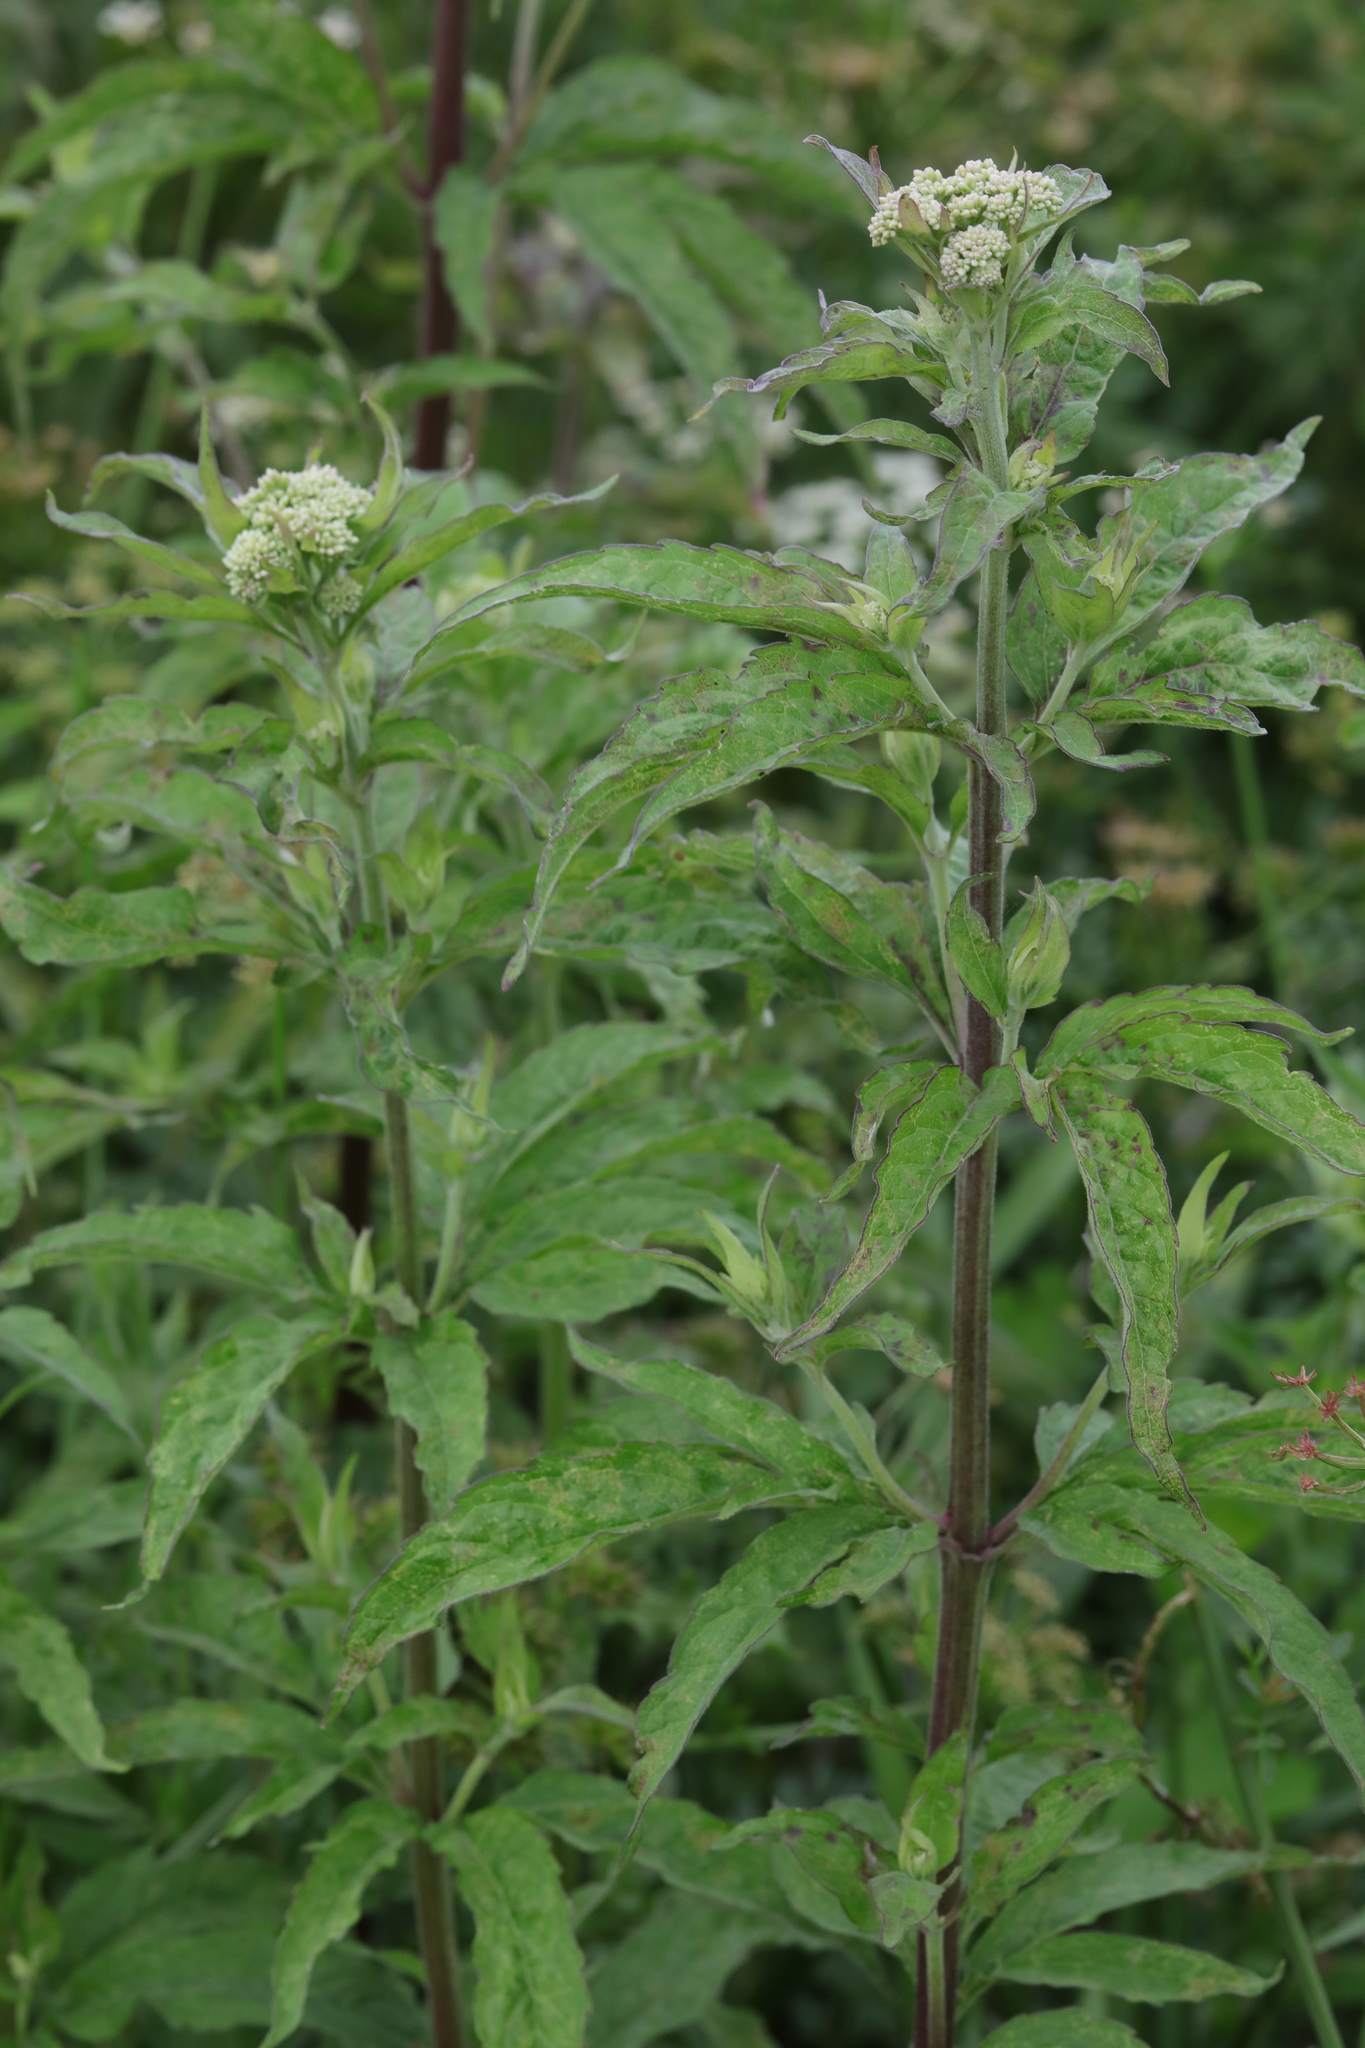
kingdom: Plantae
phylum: Tracheophyta
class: Magnoliopsida
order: Asterales
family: Asteraceae
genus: Eupatorium
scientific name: Eupatorium cannabinum
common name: Hemp-agrimony
